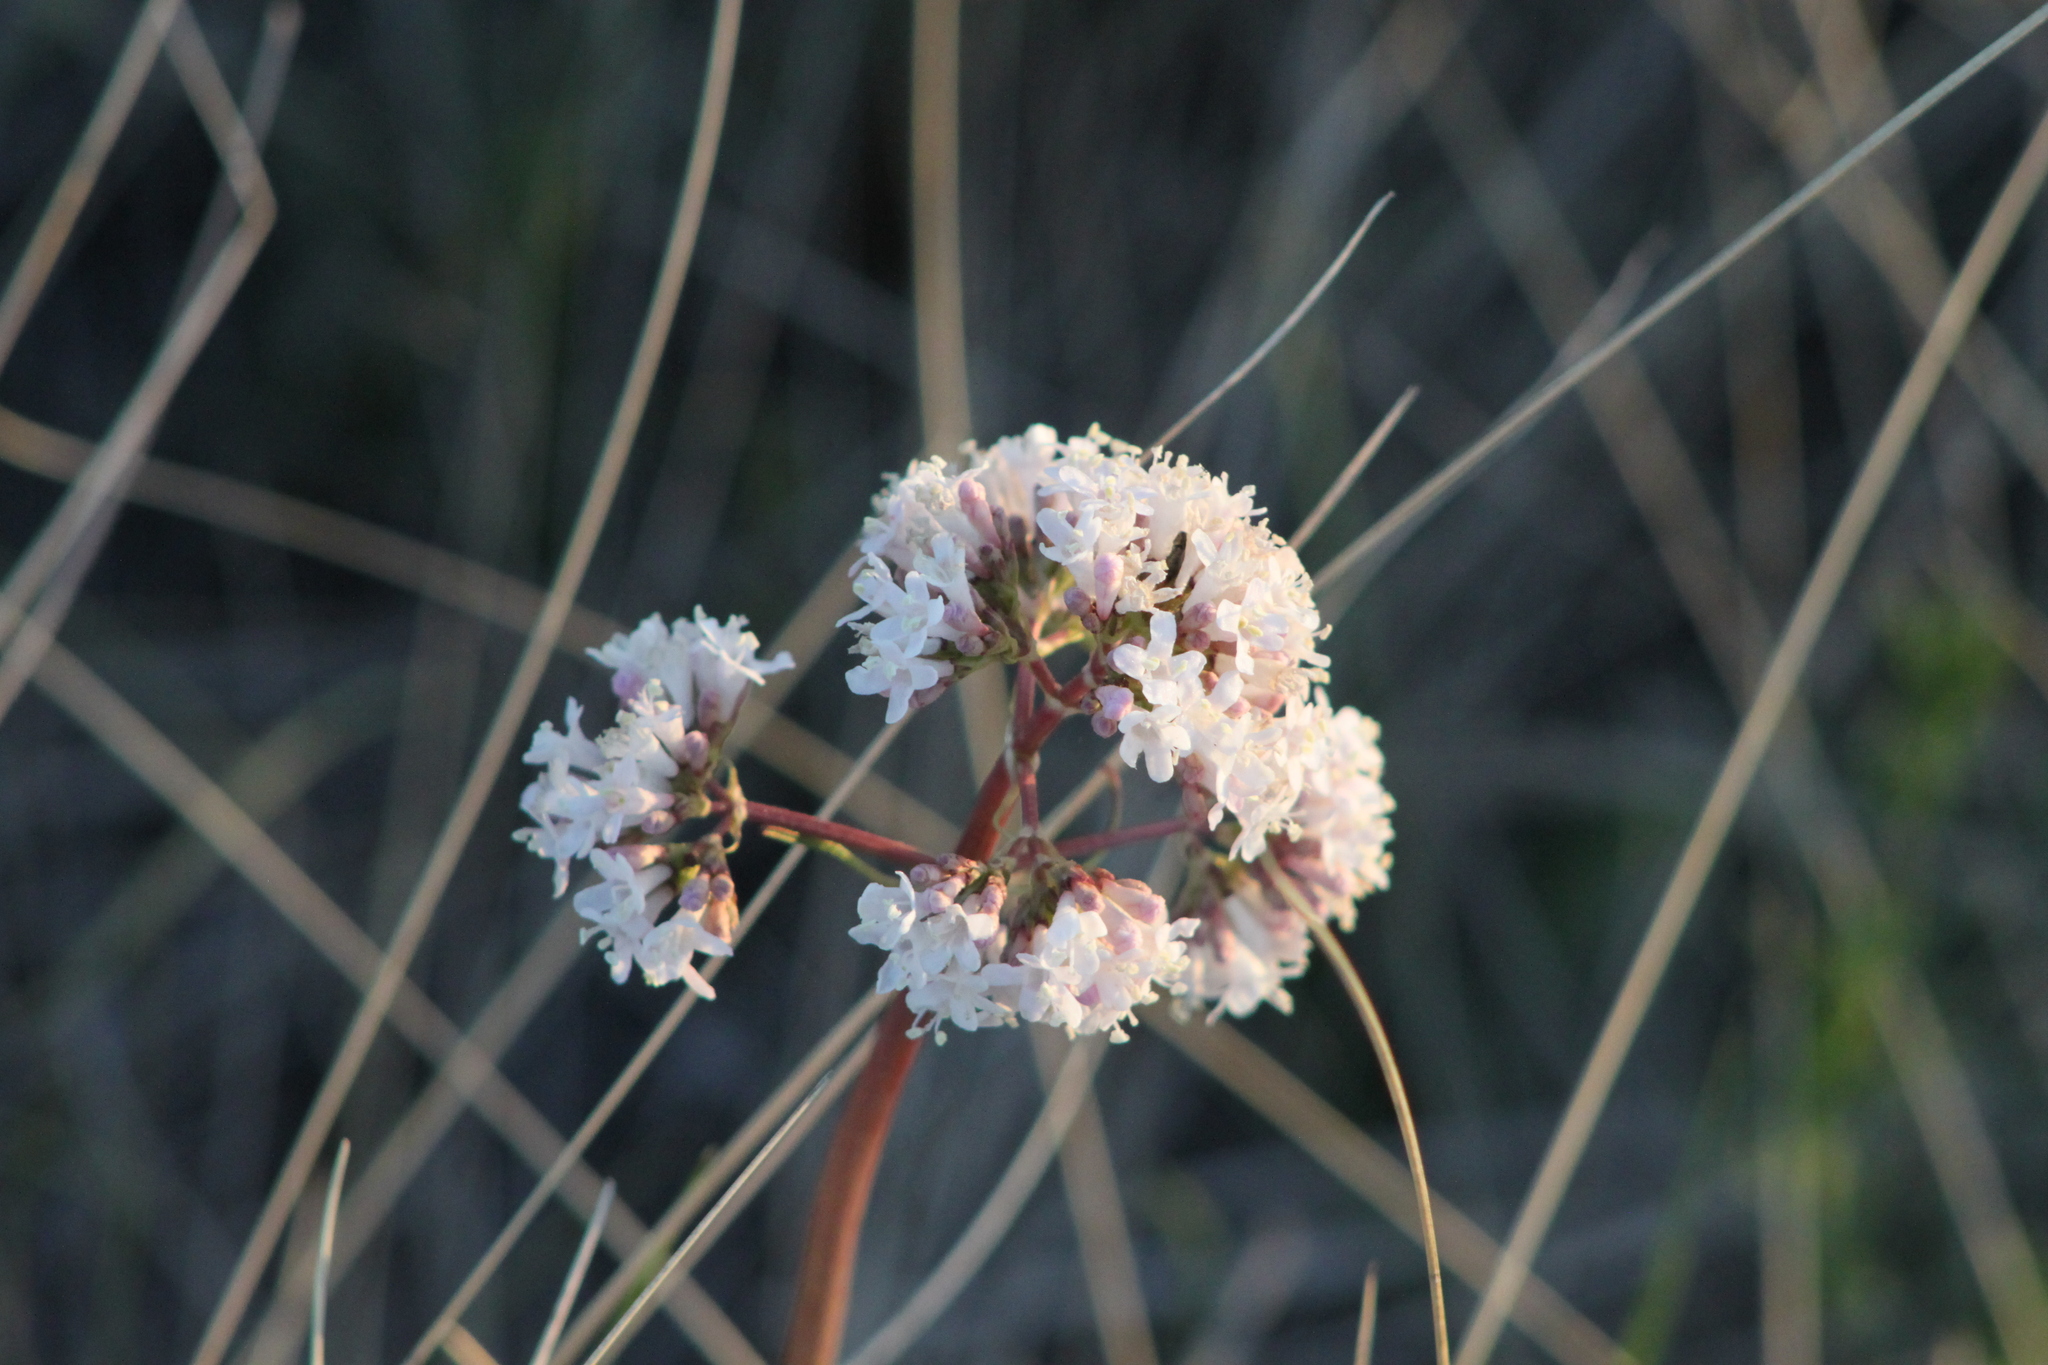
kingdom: Plantae
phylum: Tracheophyta
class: Magnoliopsida
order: Dipsacales
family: Caprifoliaceae
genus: Valeriana
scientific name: Valeriana tuberosa
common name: Tuberous valerian
